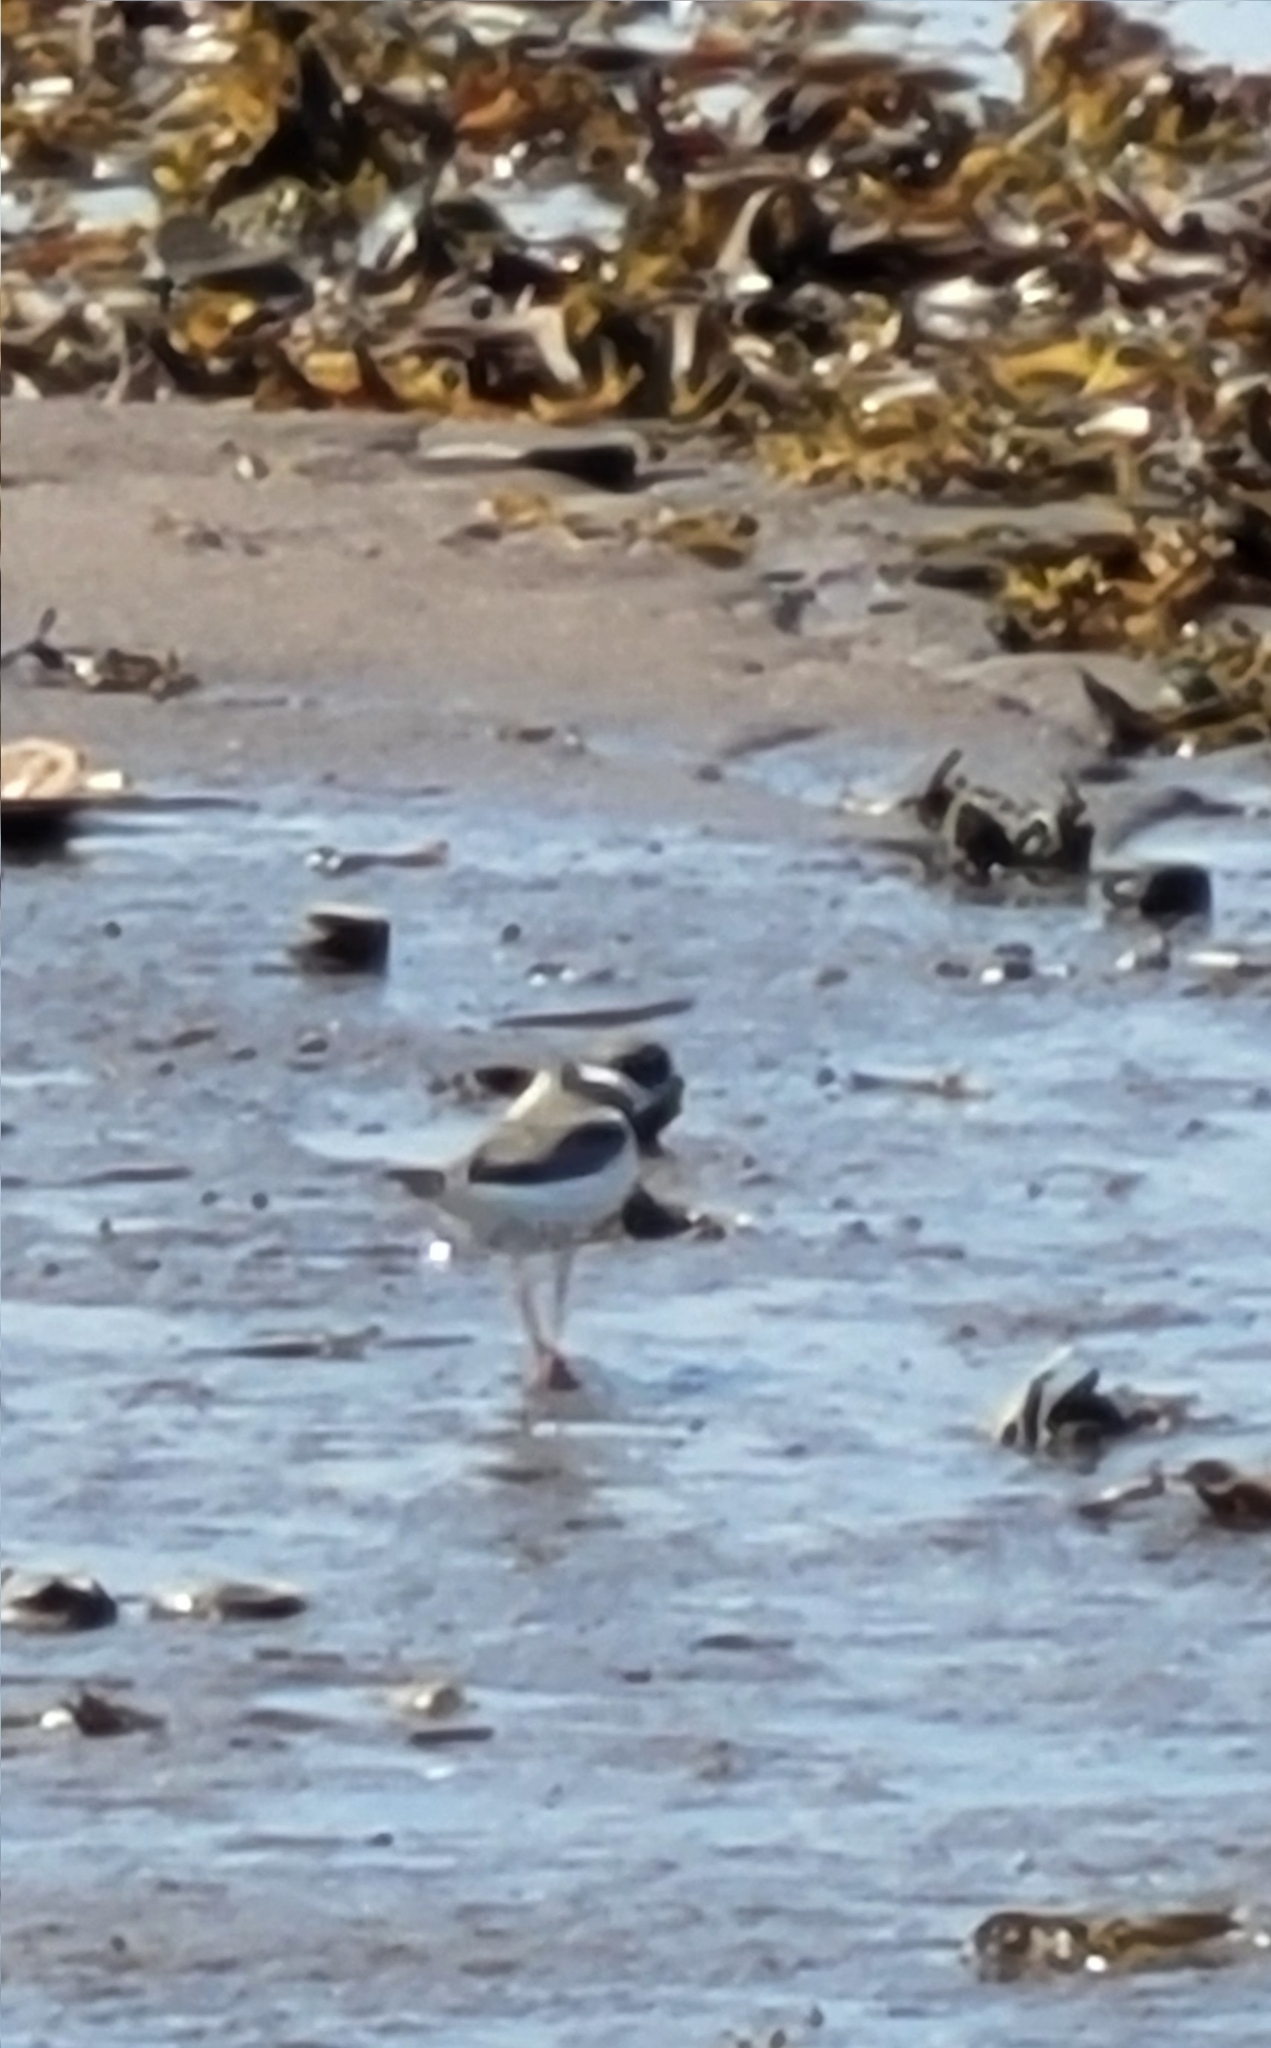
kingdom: Animalia
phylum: Chordata
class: Aves
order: Charadriiformes
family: Charadriidae
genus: Charadrius
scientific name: Charadrius semipalmatus
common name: Semipalmated plover
